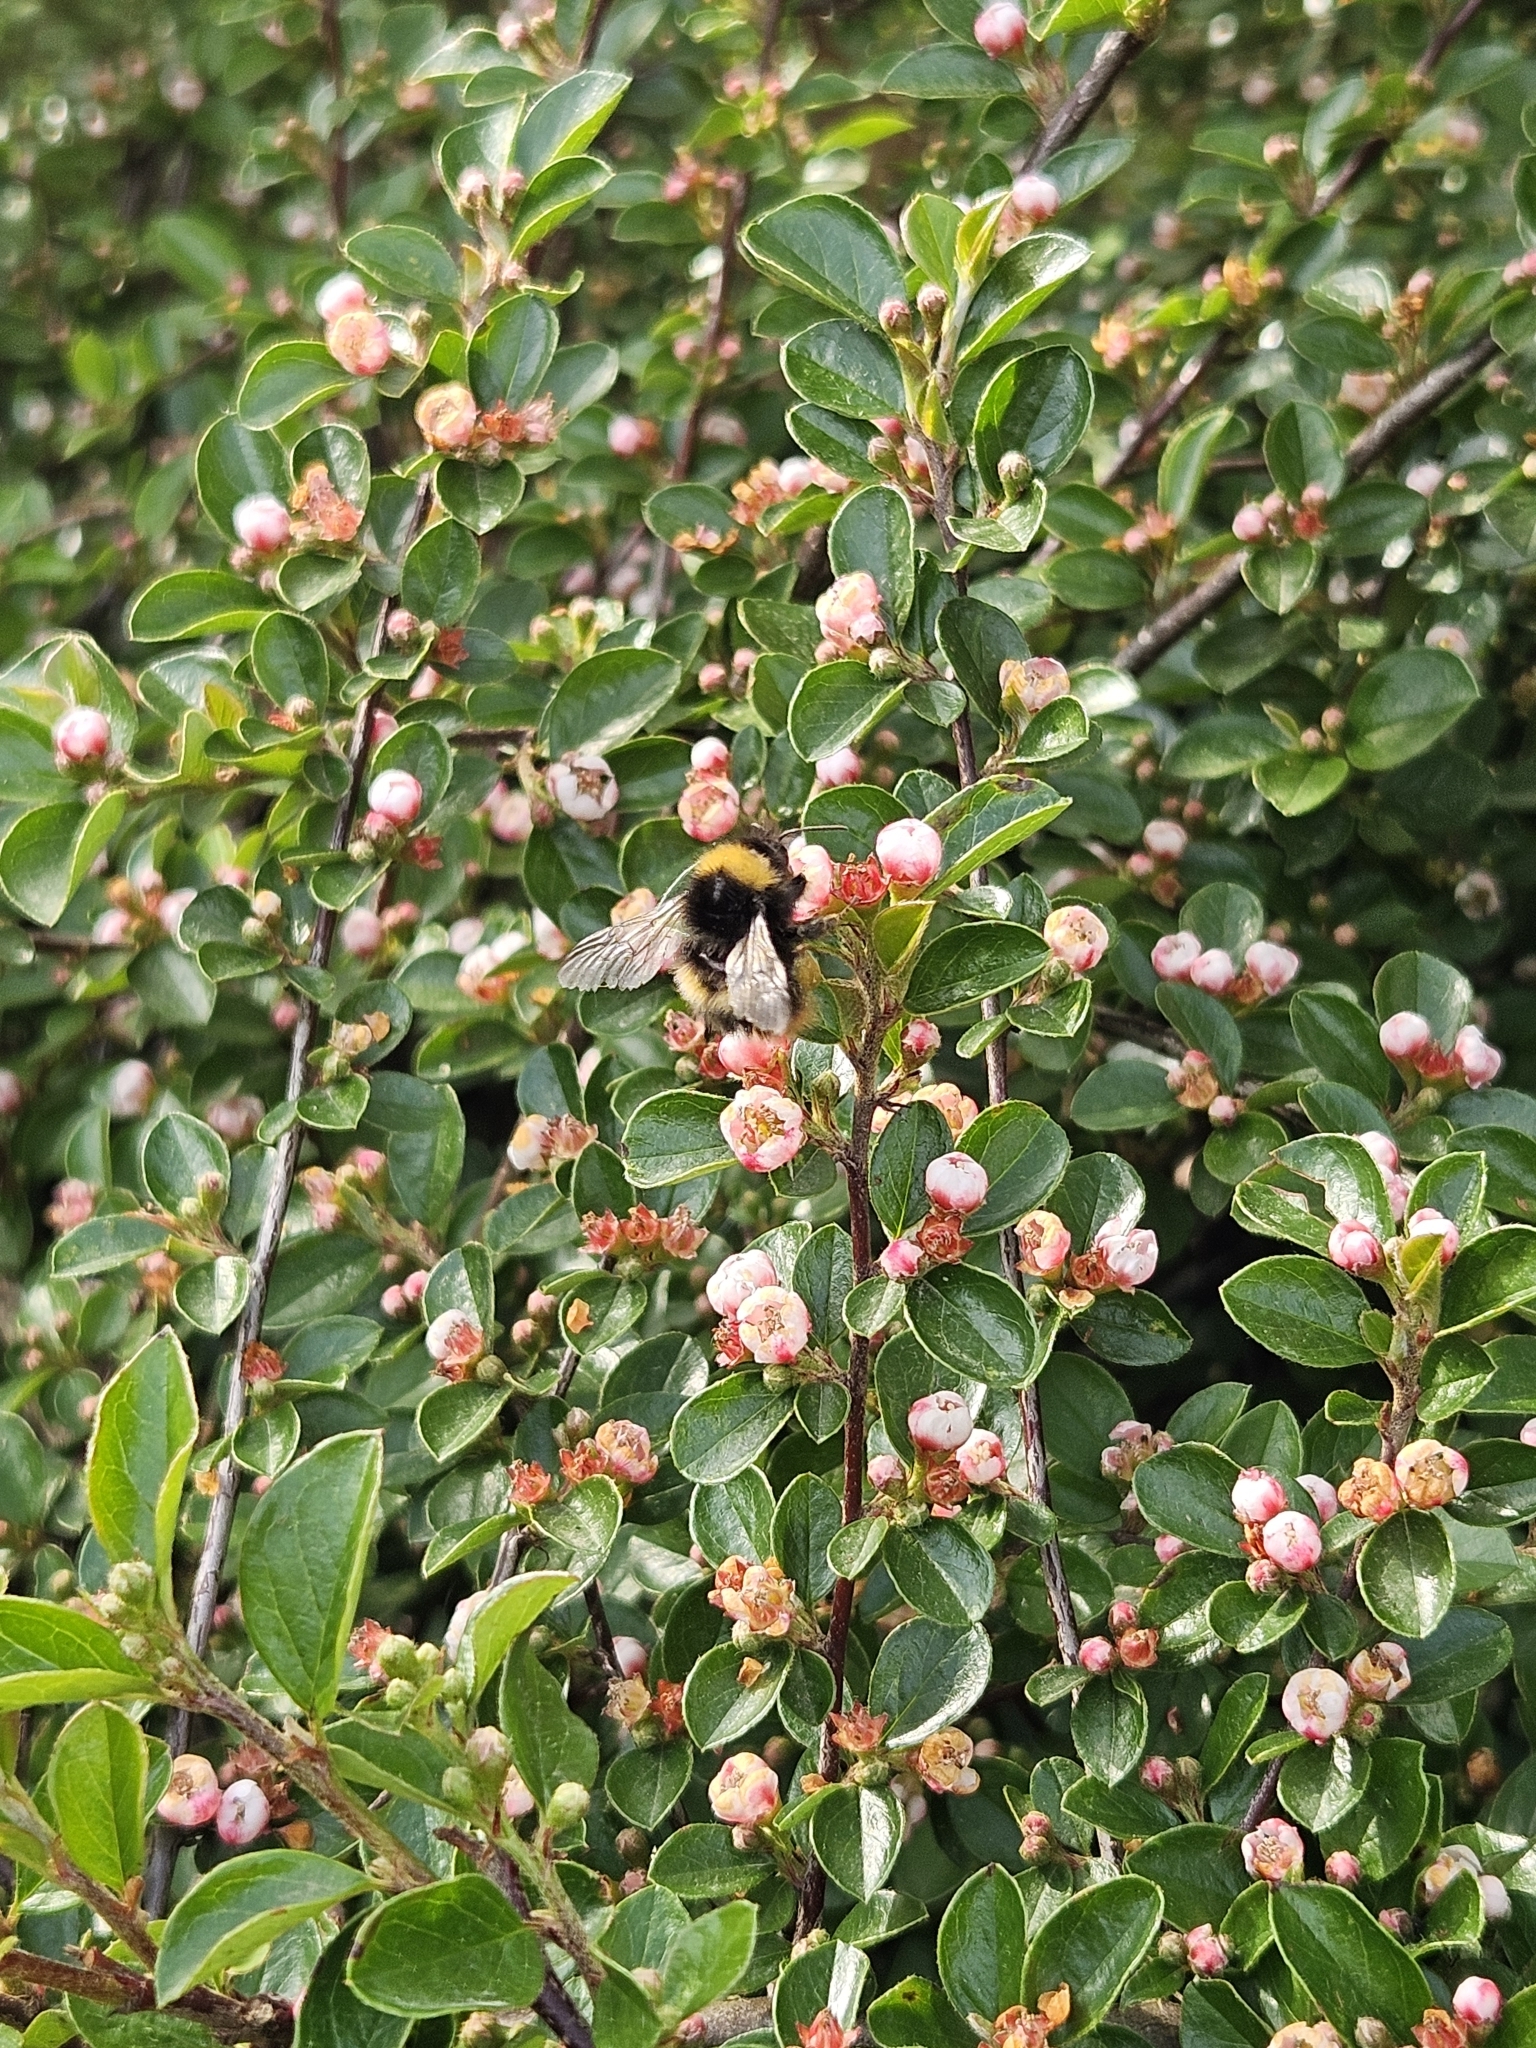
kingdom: Animalia
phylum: Arthropoda
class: Insecta
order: Hymenoptera
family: Apidae
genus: Bombus
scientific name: Bombus pratorum
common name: Early humble-bee
